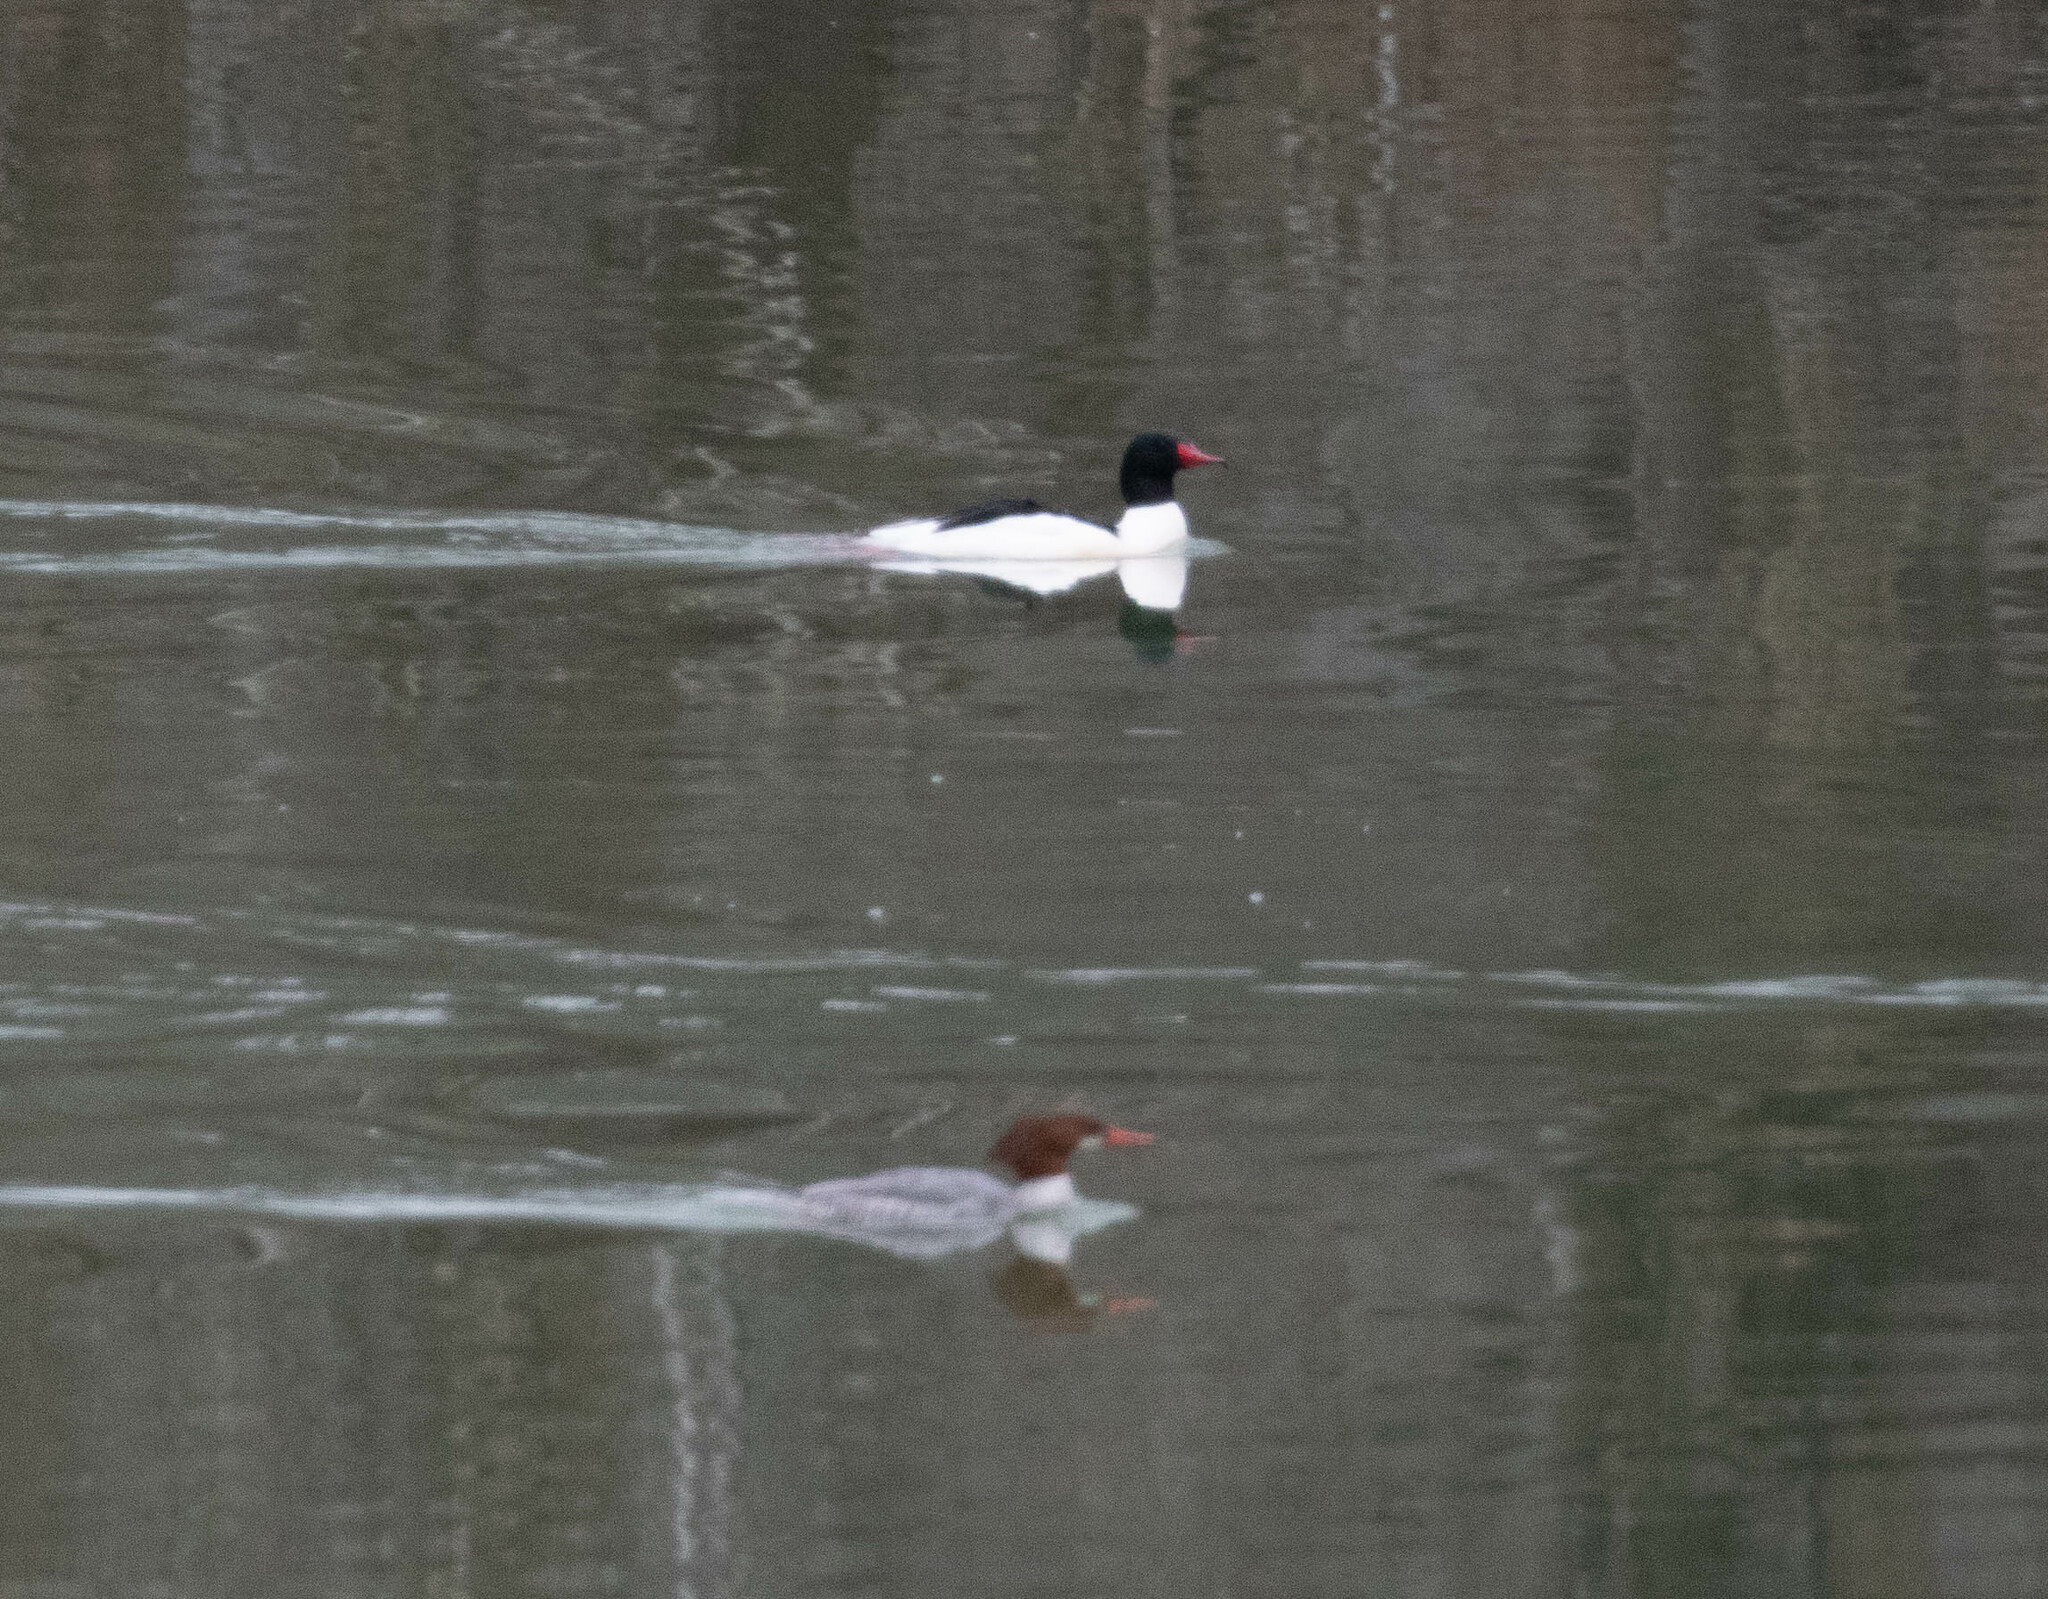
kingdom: Animalia
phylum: Chordata
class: Aves
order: Anseriformes
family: Anatidae
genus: Mergus
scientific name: Mergus merganser
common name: Common merganser
